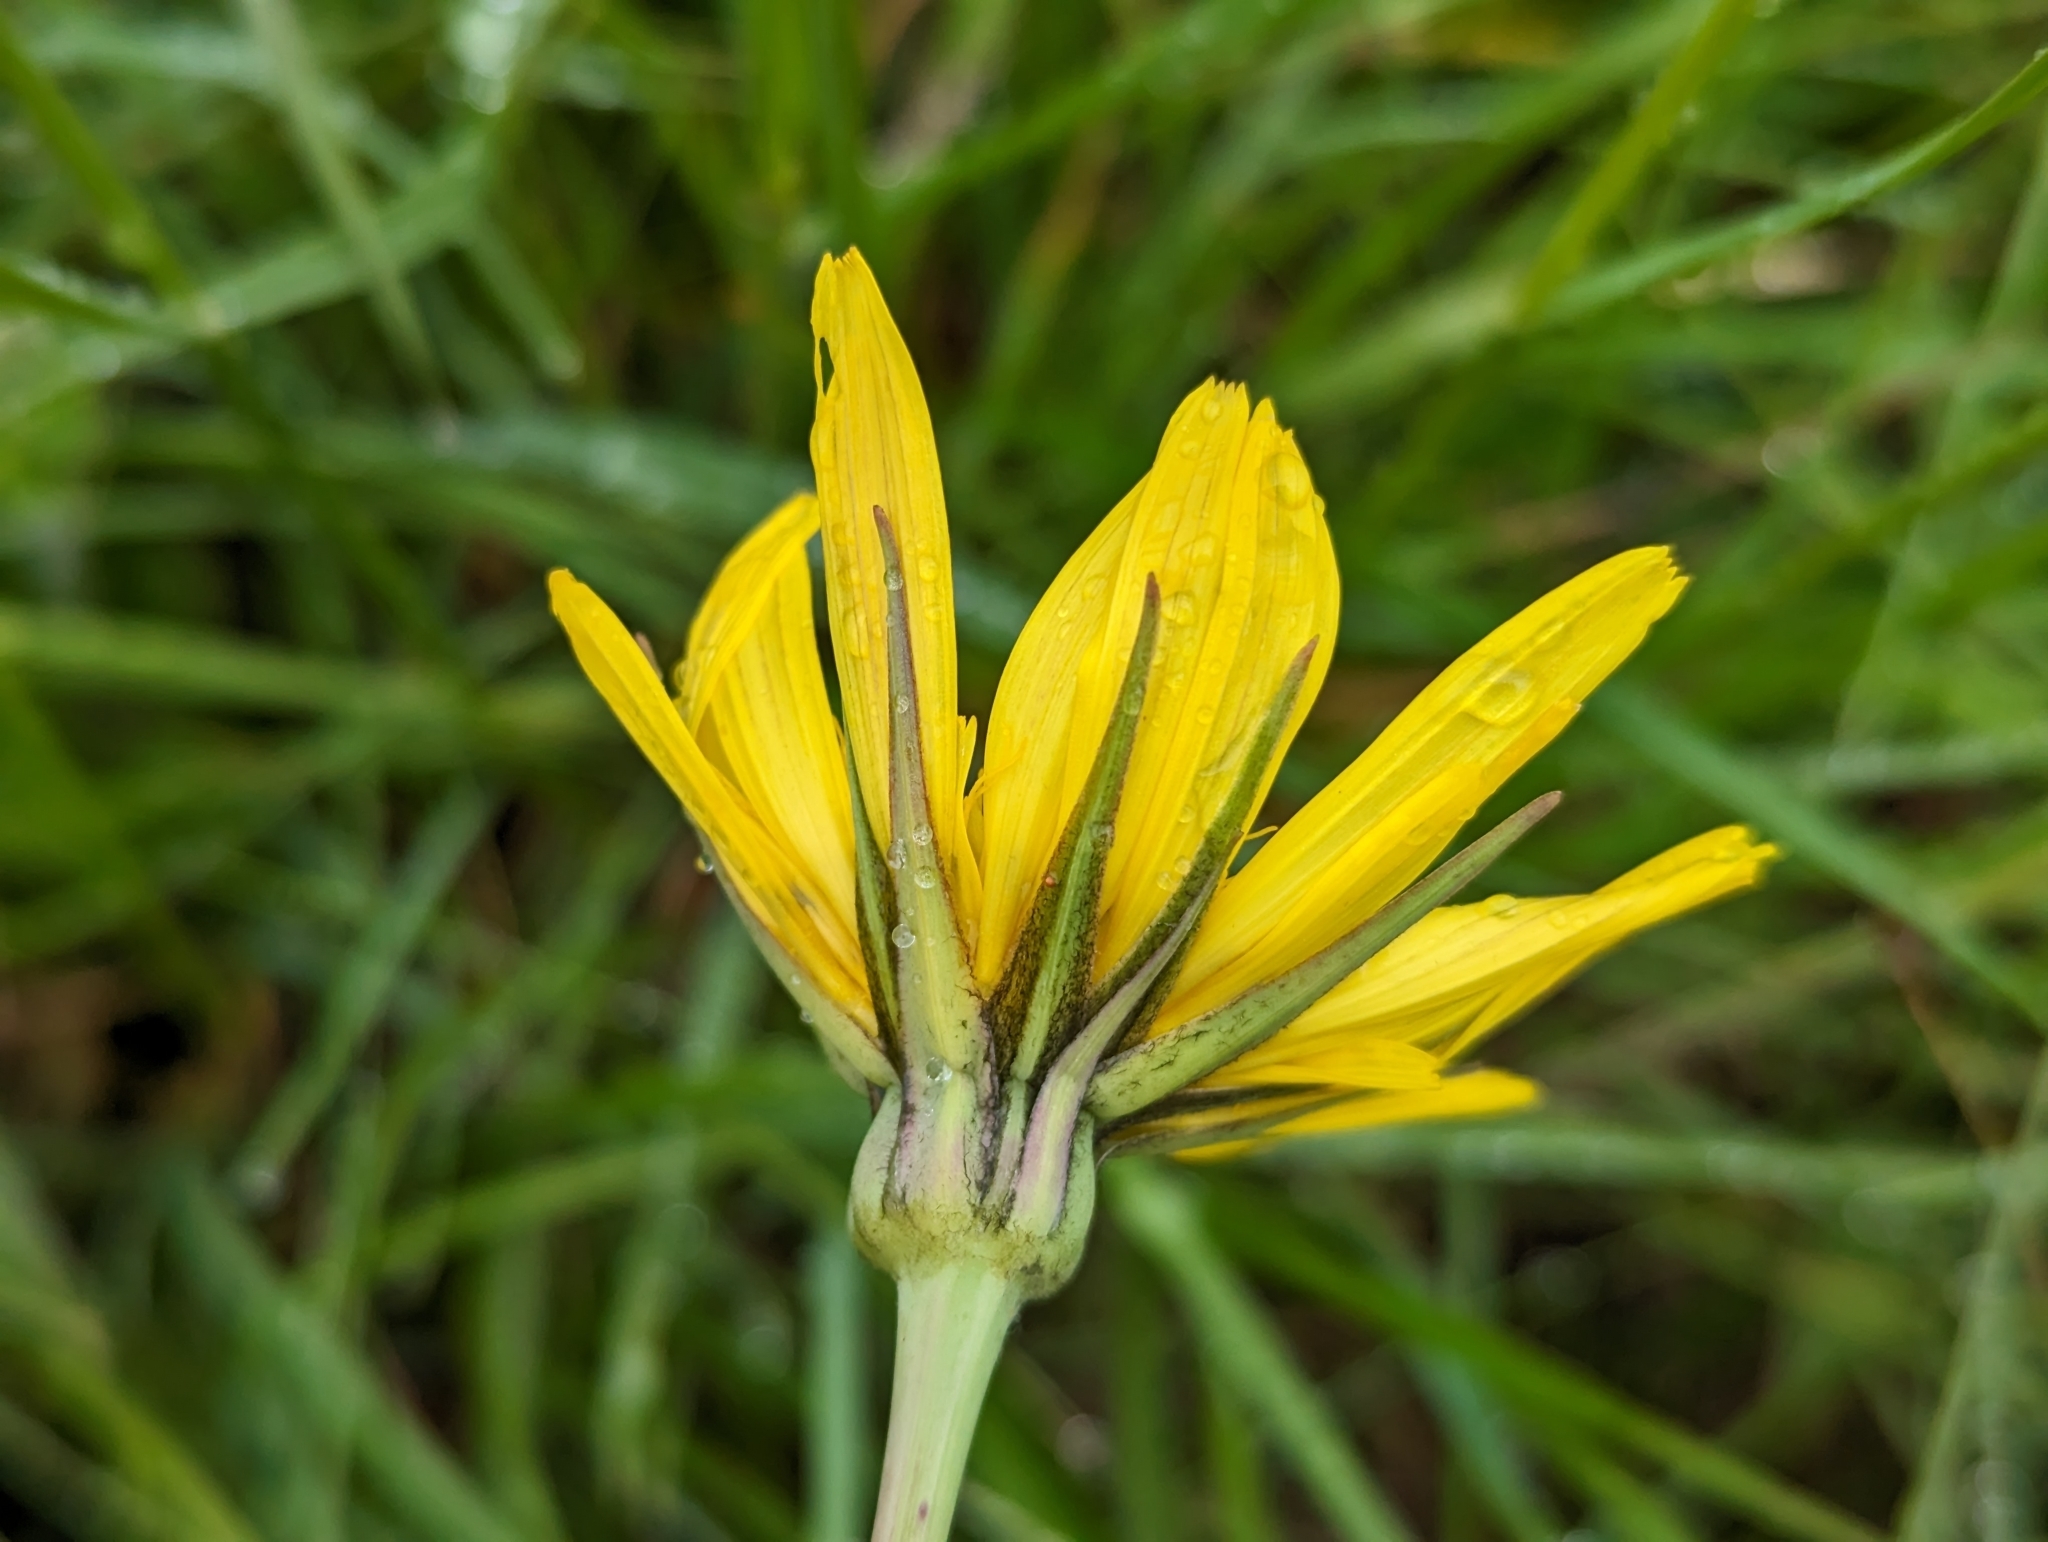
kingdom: Plantae
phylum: Tracheophyta
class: Magnoliopsida
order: Asterales
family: Asteraceae
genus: Tragopogon
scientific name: Tragopogon orientalis
